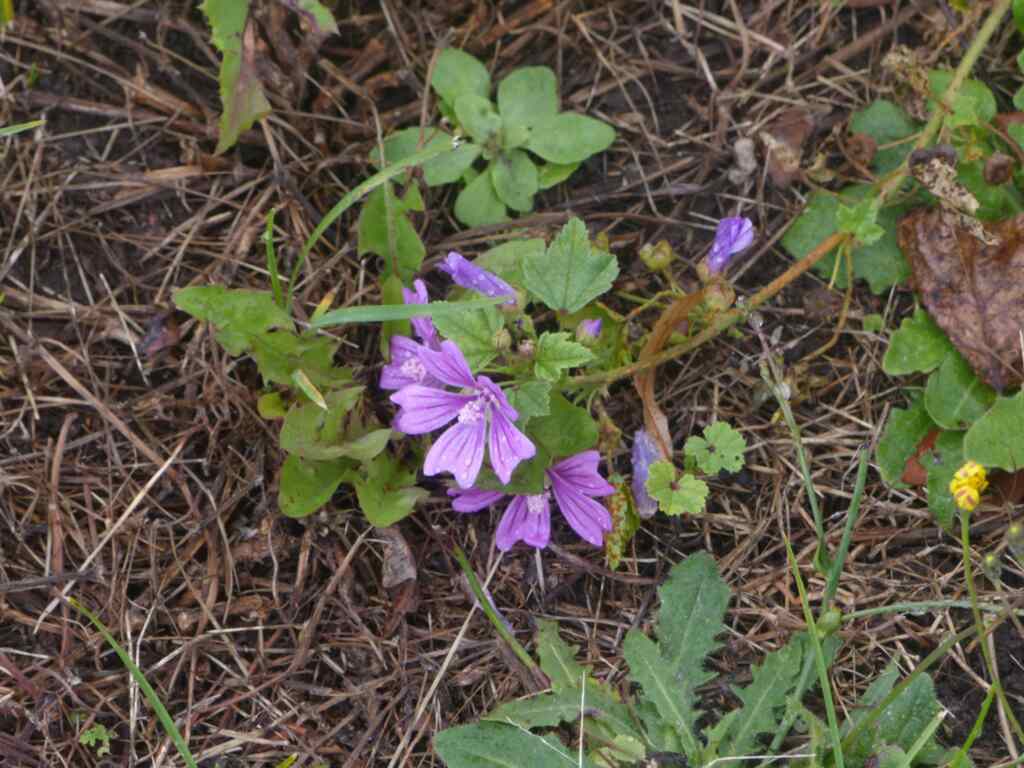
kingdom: Plantae
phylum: Tracheophyta
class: Magnoliopsida
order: Malvales
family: Malvaceae
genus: Malva
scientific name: Malva sylvestris
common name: Common mallow
